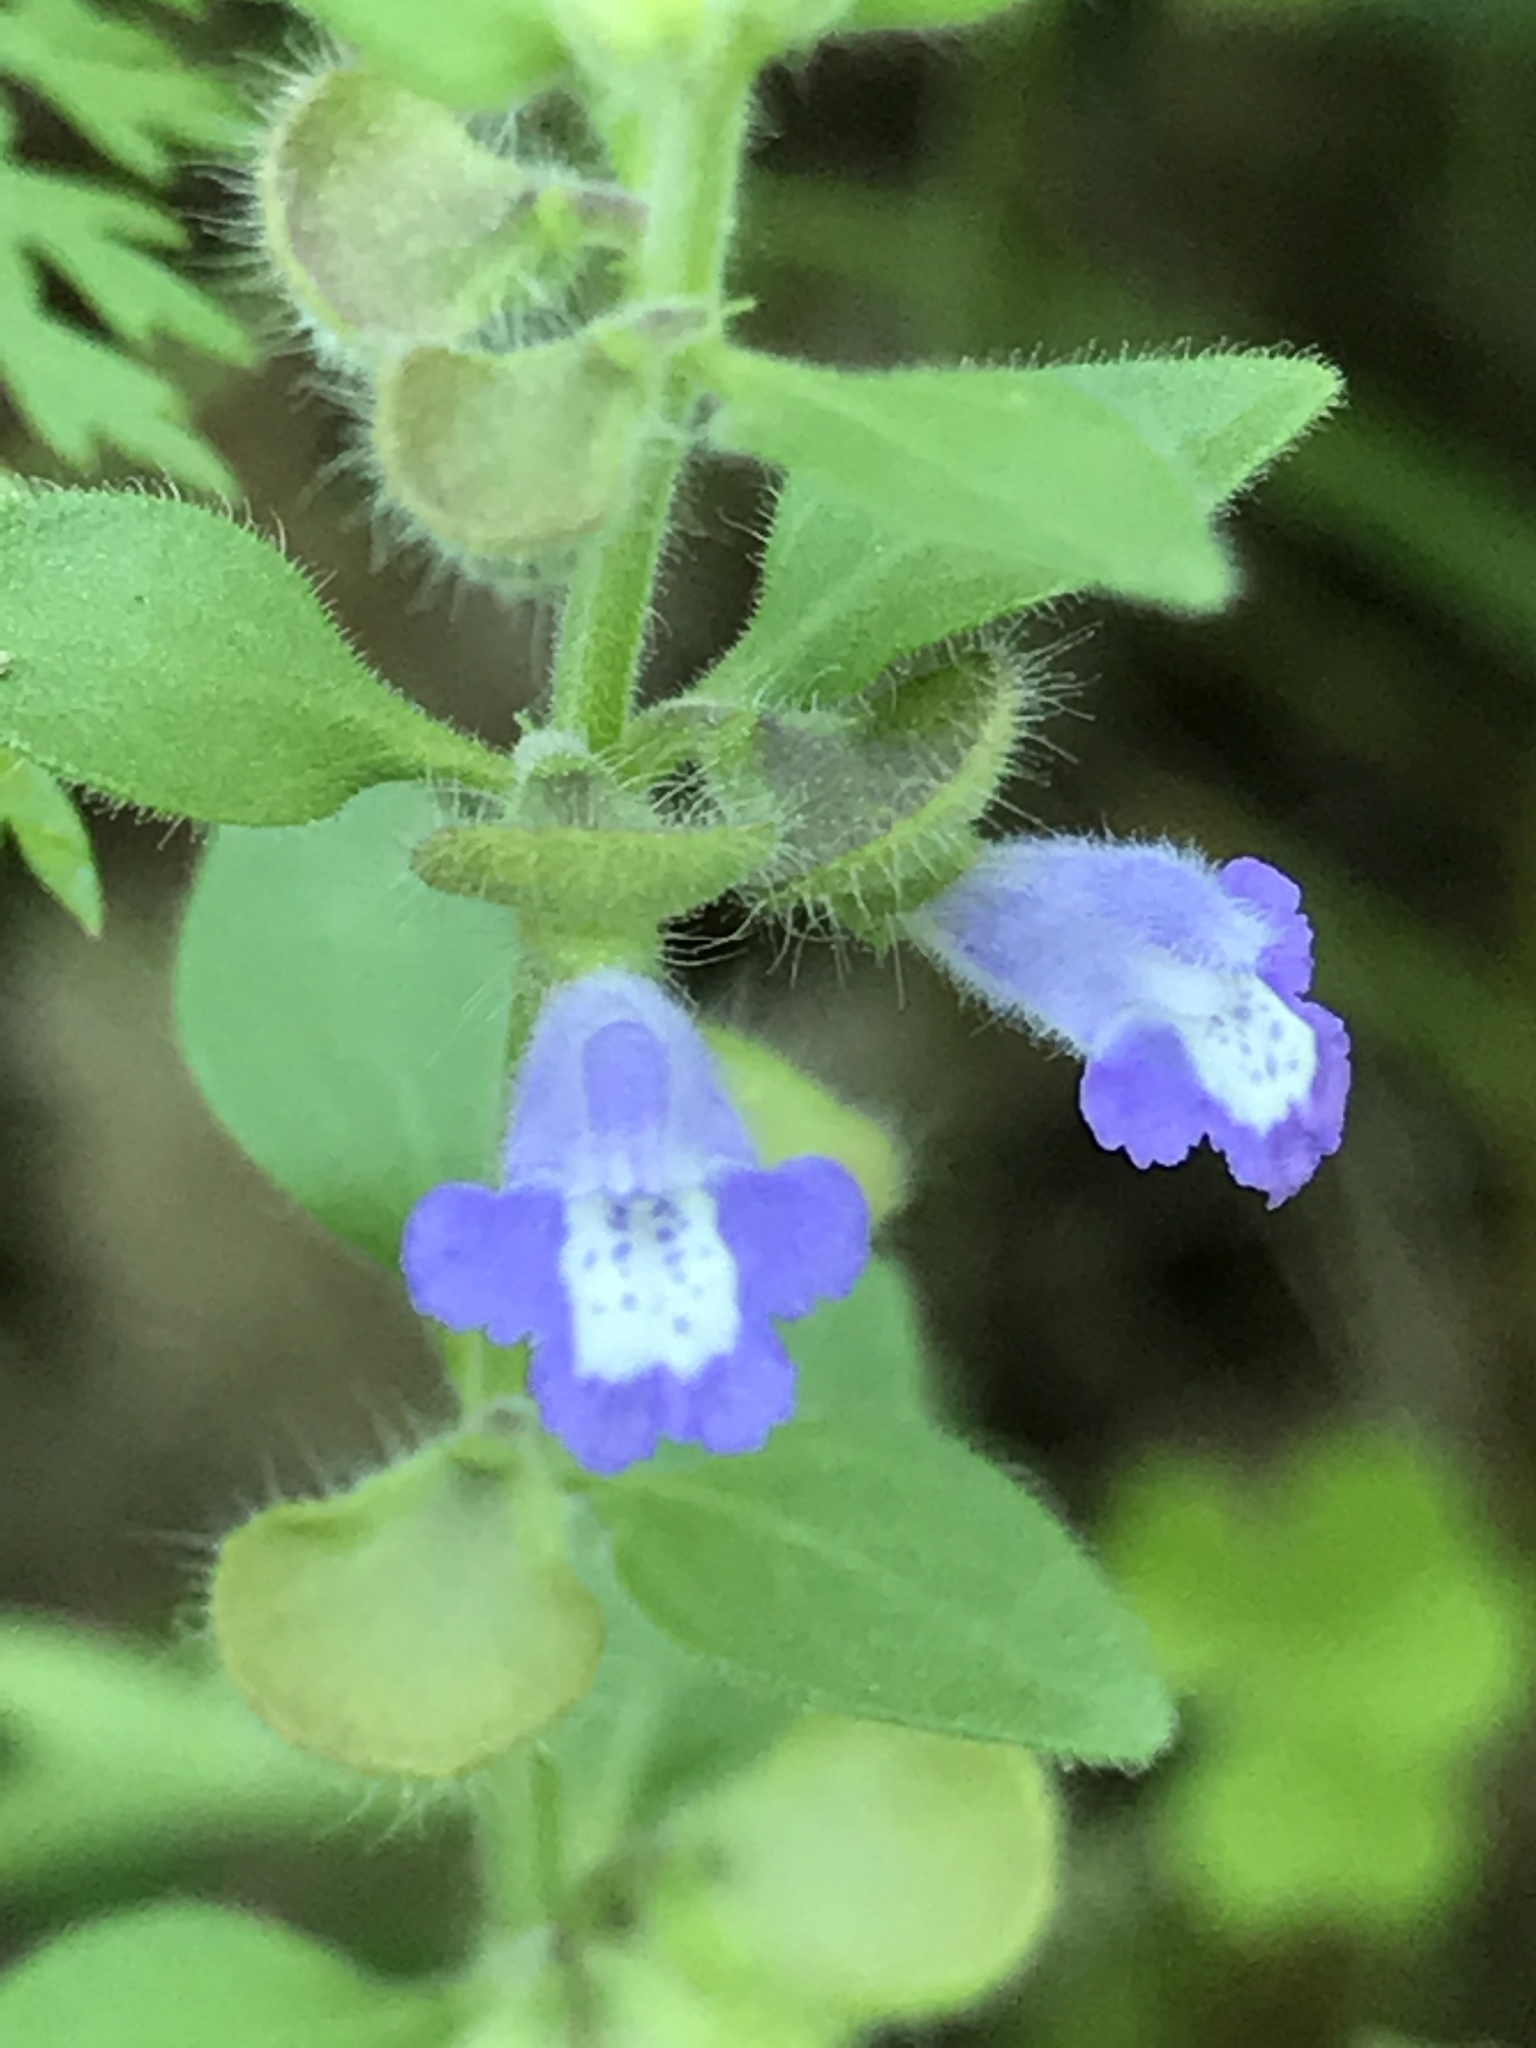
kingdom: Plantae
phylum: Tracheophyta
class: Magnoliopsida
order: Lamiales
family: Lamiaceae
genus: Scutellaria
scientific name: Scutellaria drummondii
